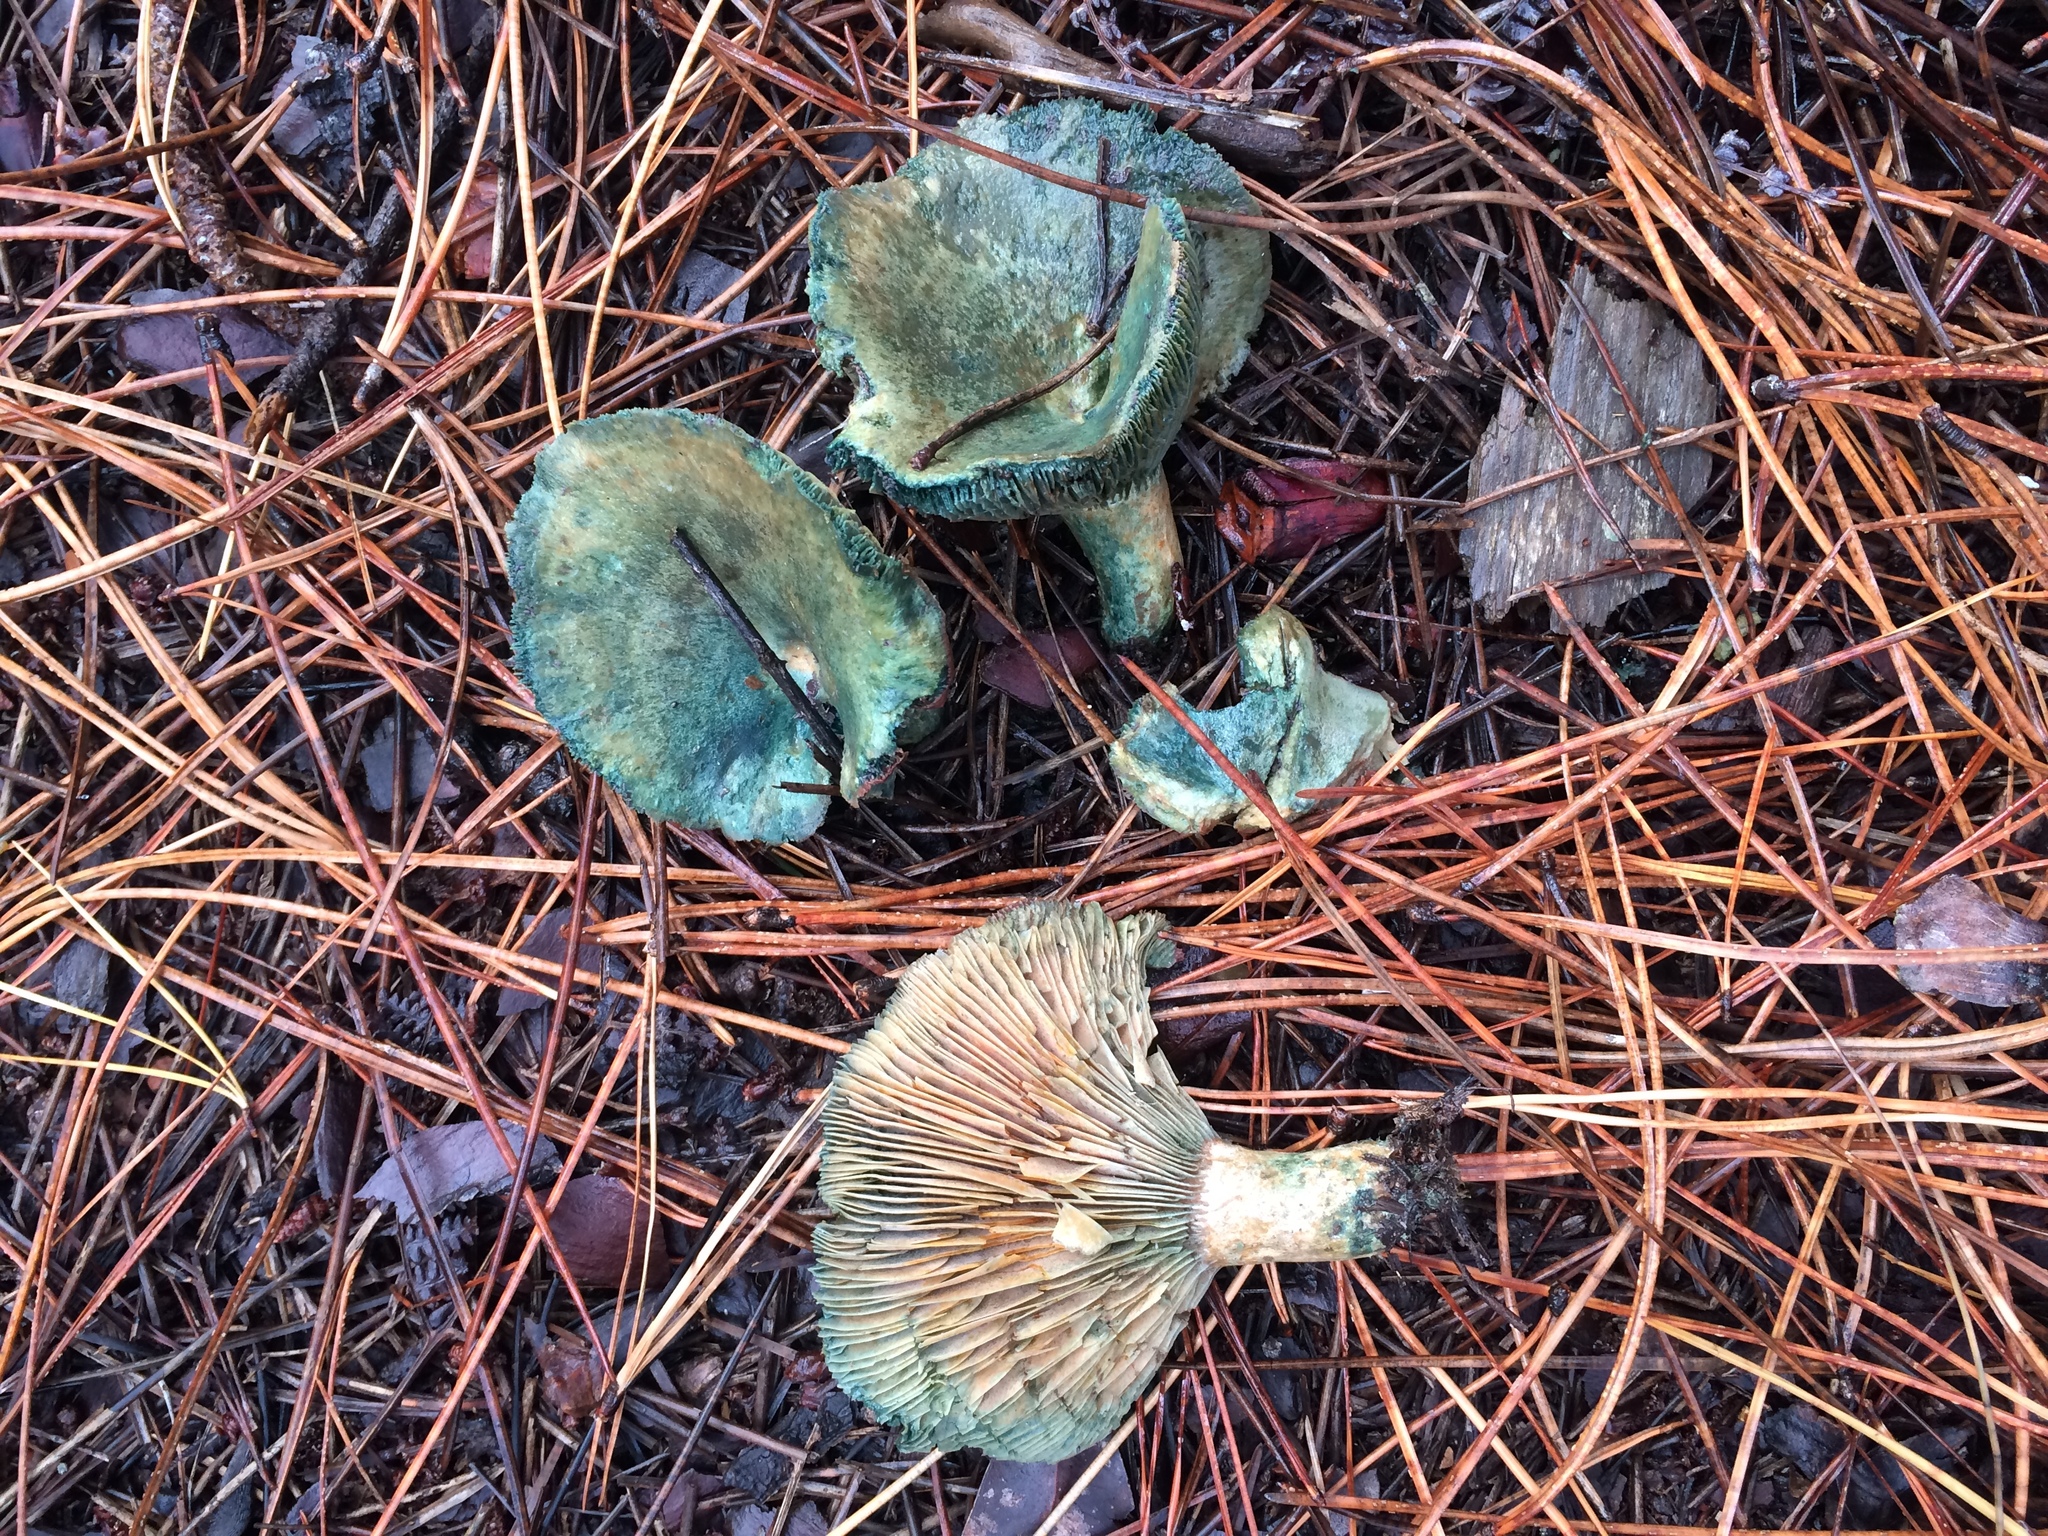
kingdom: Fungi
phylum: Basidiomycota
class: Agaricomycetes
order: Russulales
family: Russulaceae
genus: Lactarius
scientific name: Lactarius deliciosus
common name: Saffron milk-cap
